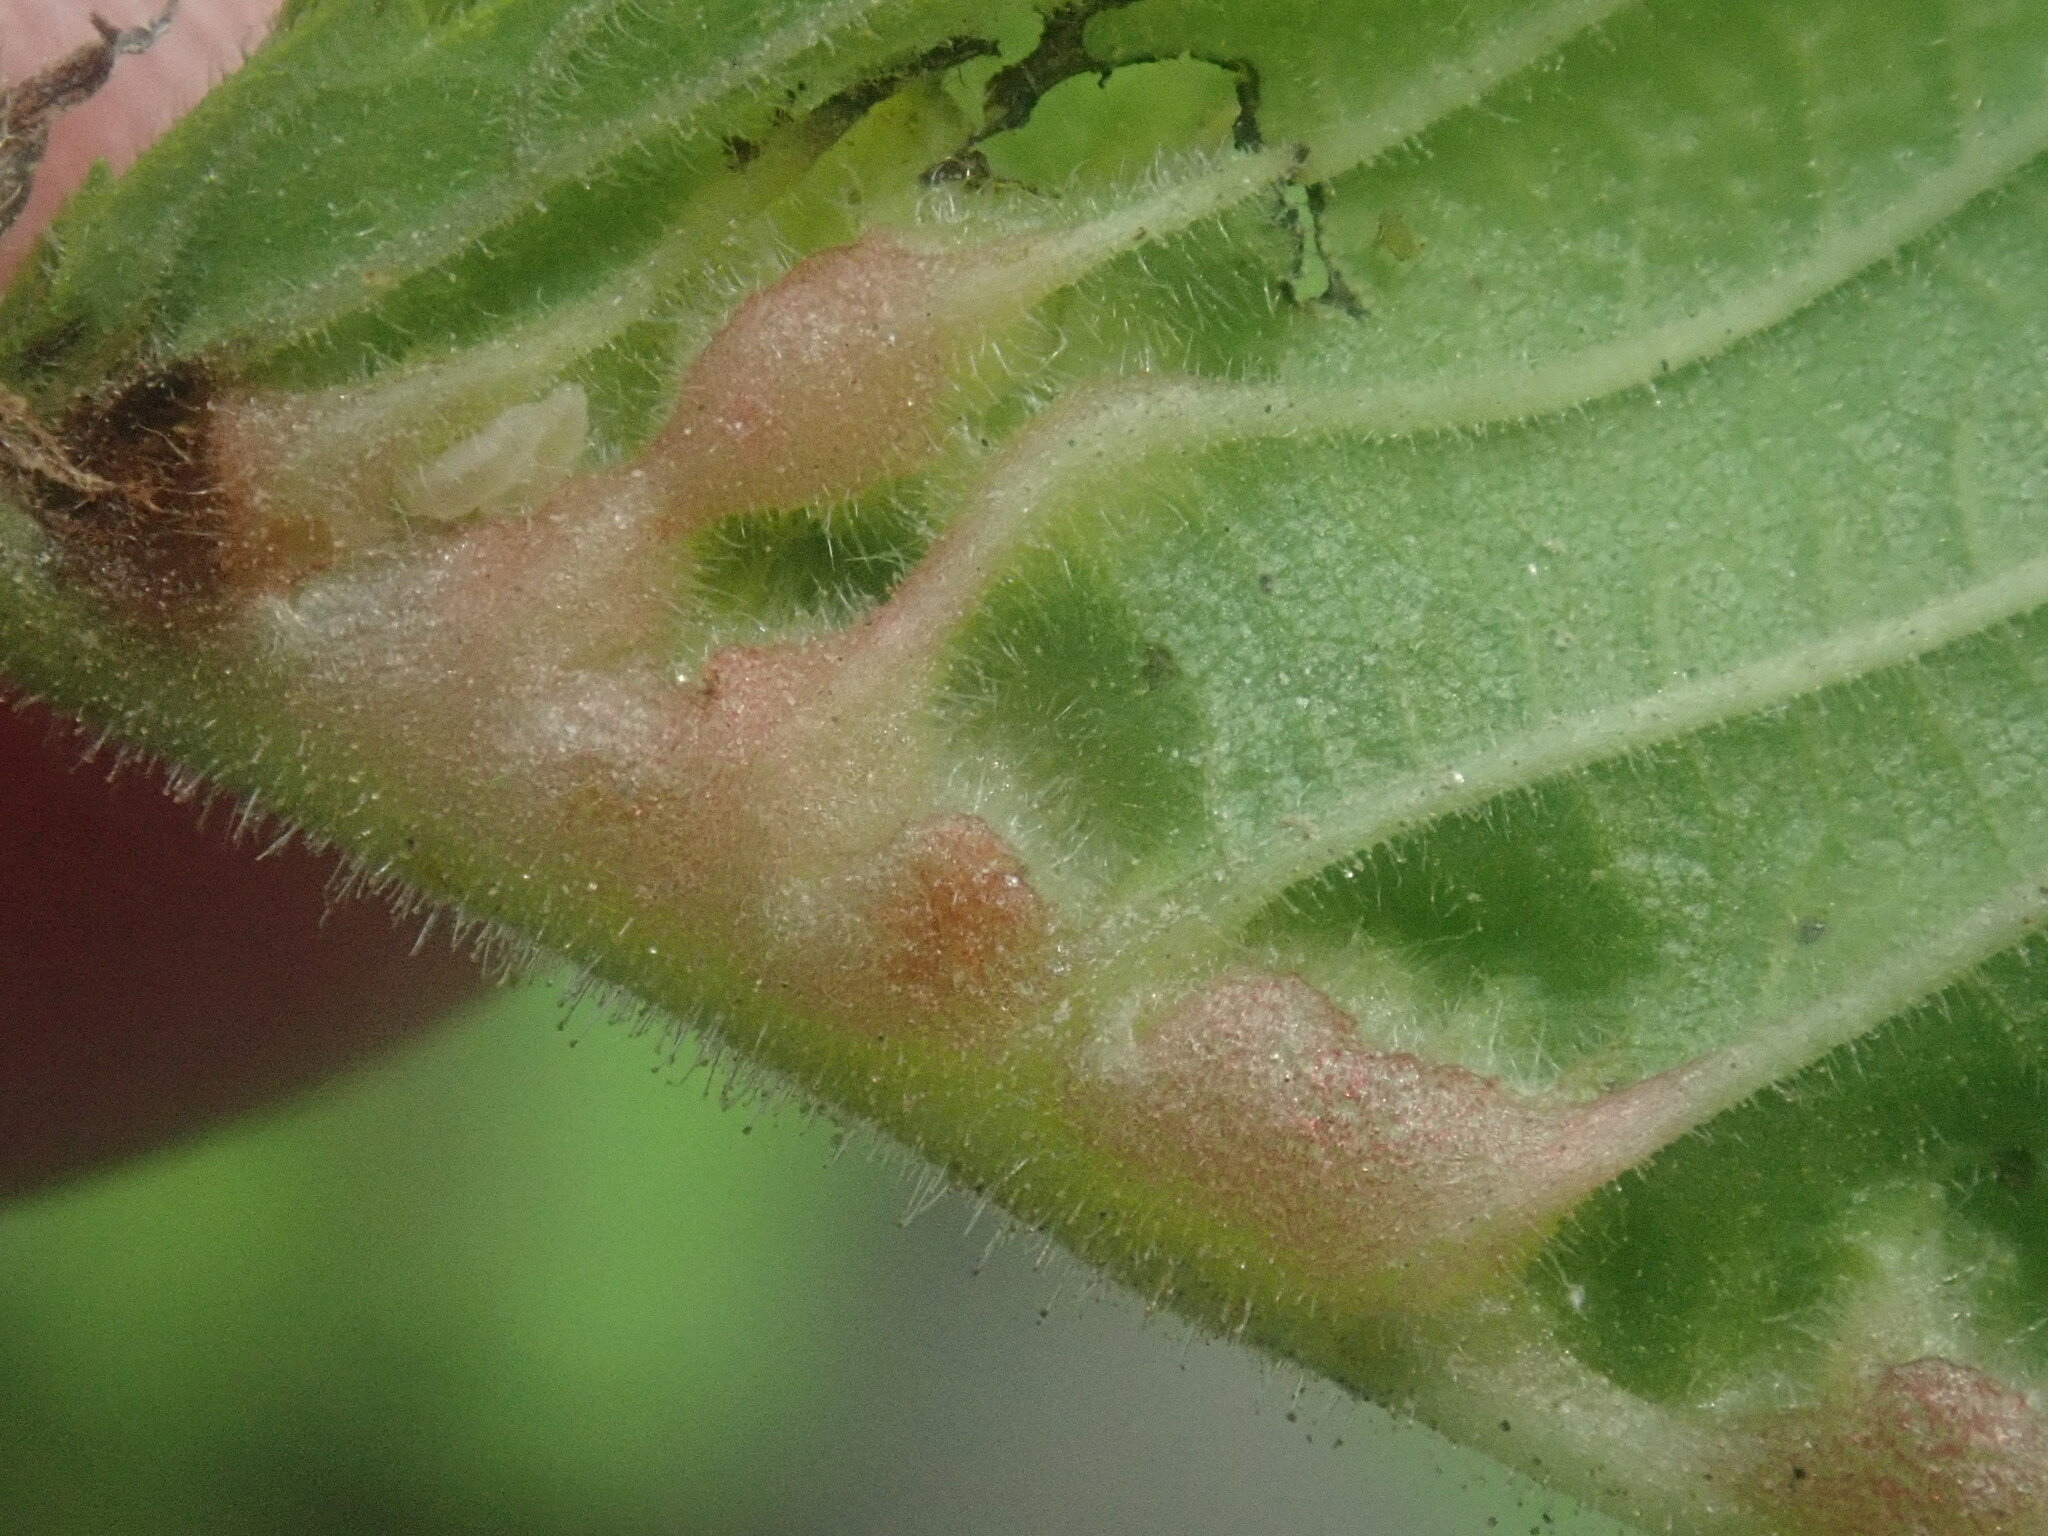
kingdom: Animalia
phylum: Arthropoda
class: Insecta
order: Diptera
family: Cecidomyiidae
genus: Janetiella
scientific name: Janetiella ulmii
